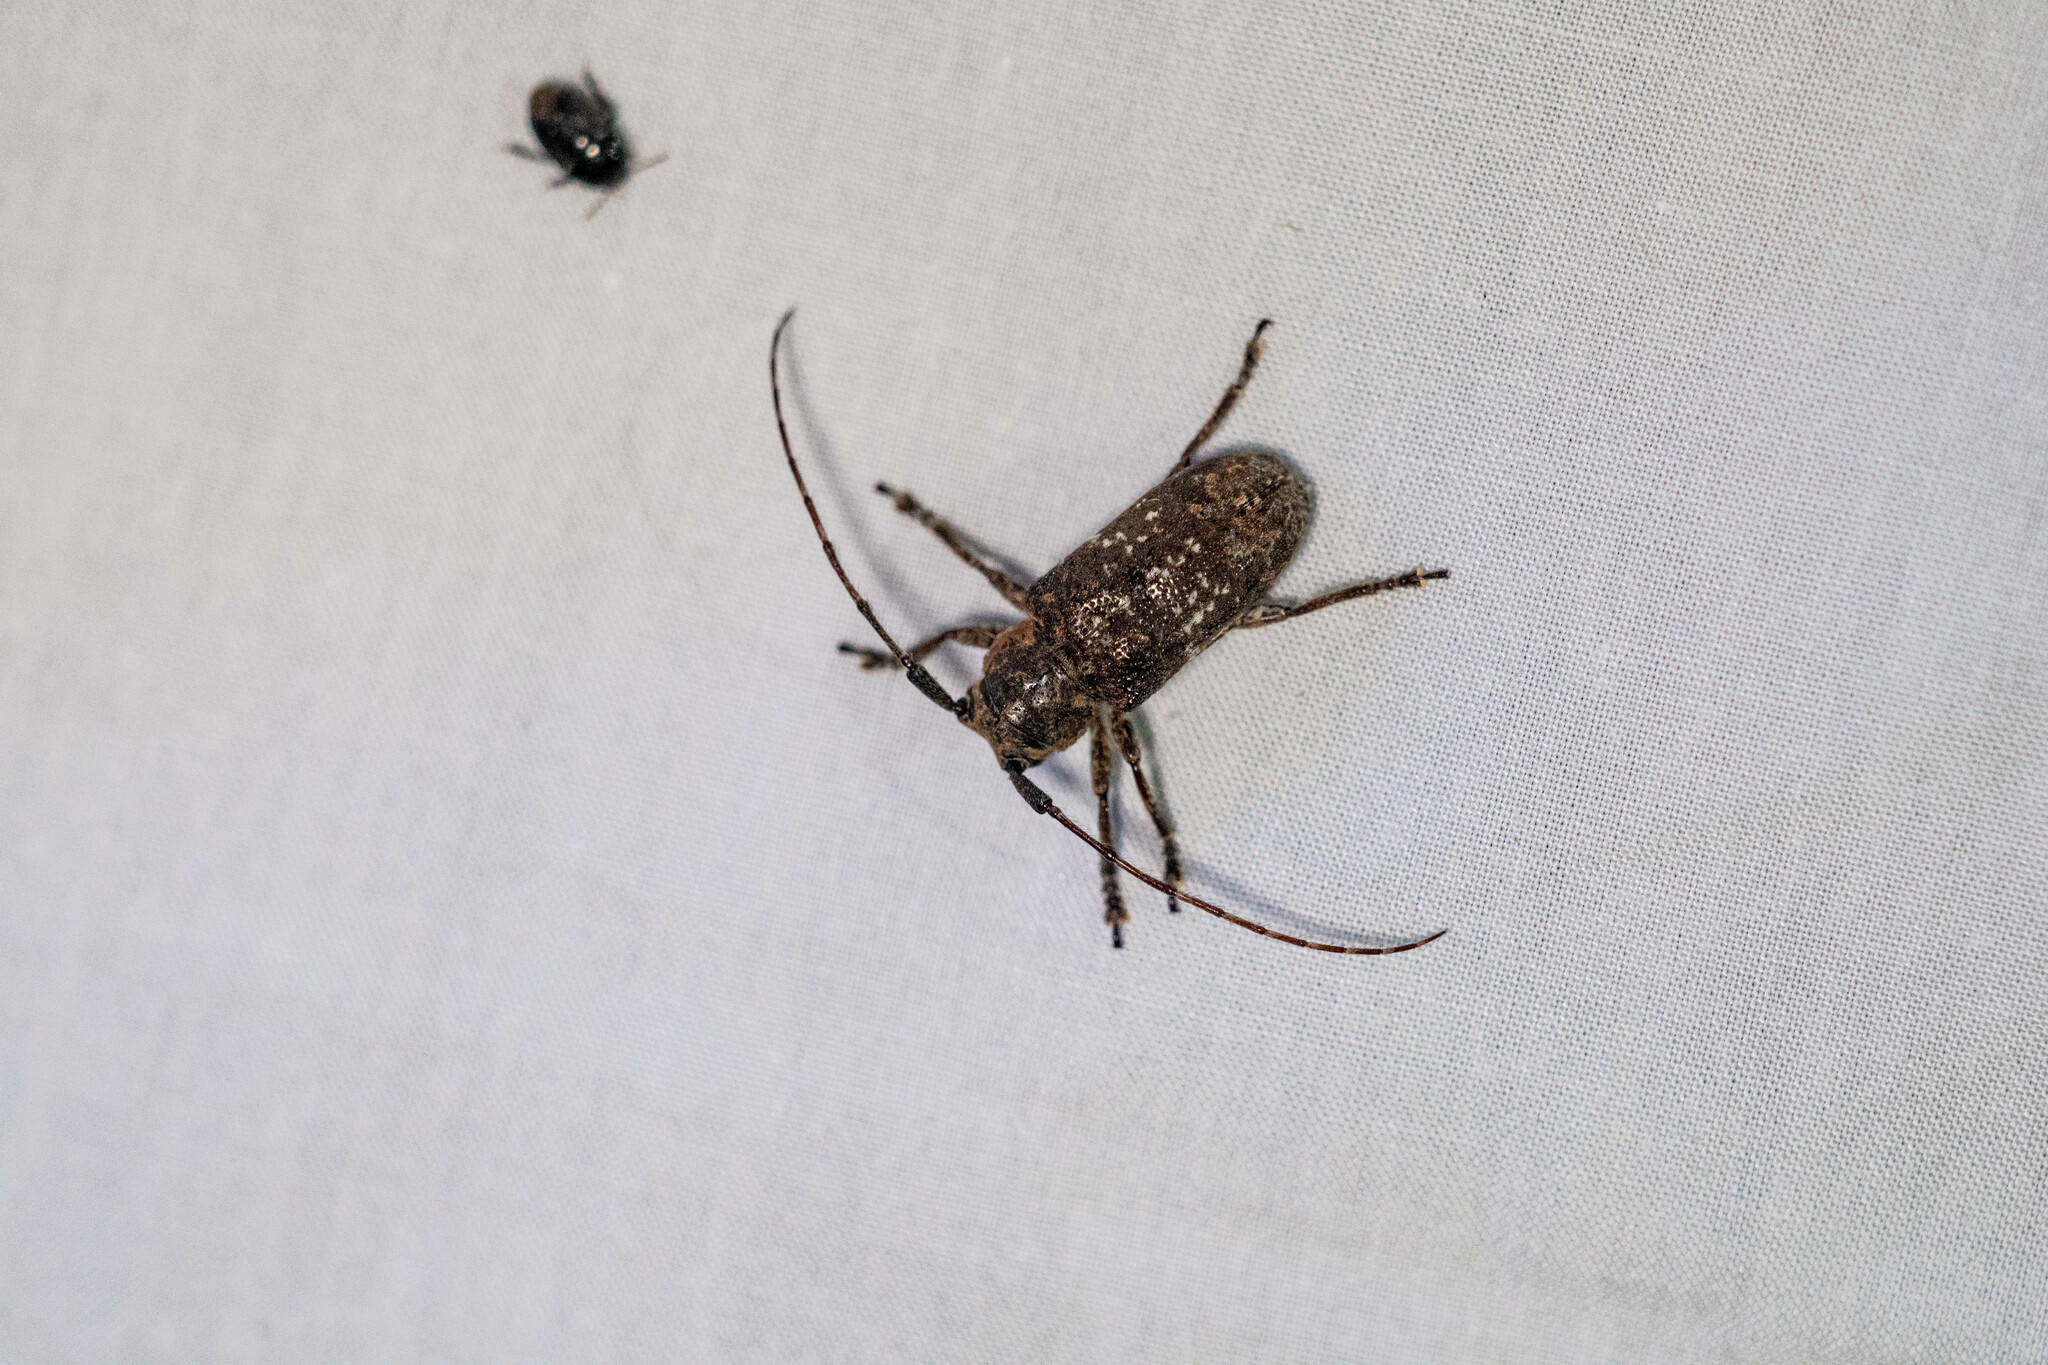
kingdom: Animalia
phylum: Arthropoda
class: Insecta
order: Coleoptera
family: Cerambycidae
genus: Desisa
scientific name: Desisa subfasciata
